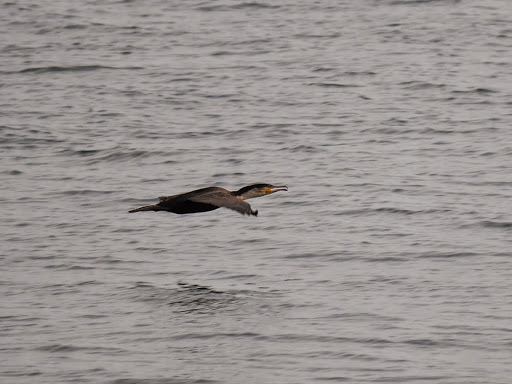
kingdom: Animalia
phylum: Chordata
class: Aves
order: Suliformes
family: Phalacrocoracidae
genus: Phalacrocorax
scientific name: Phalacrocorax carbo
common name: Great cormorant
